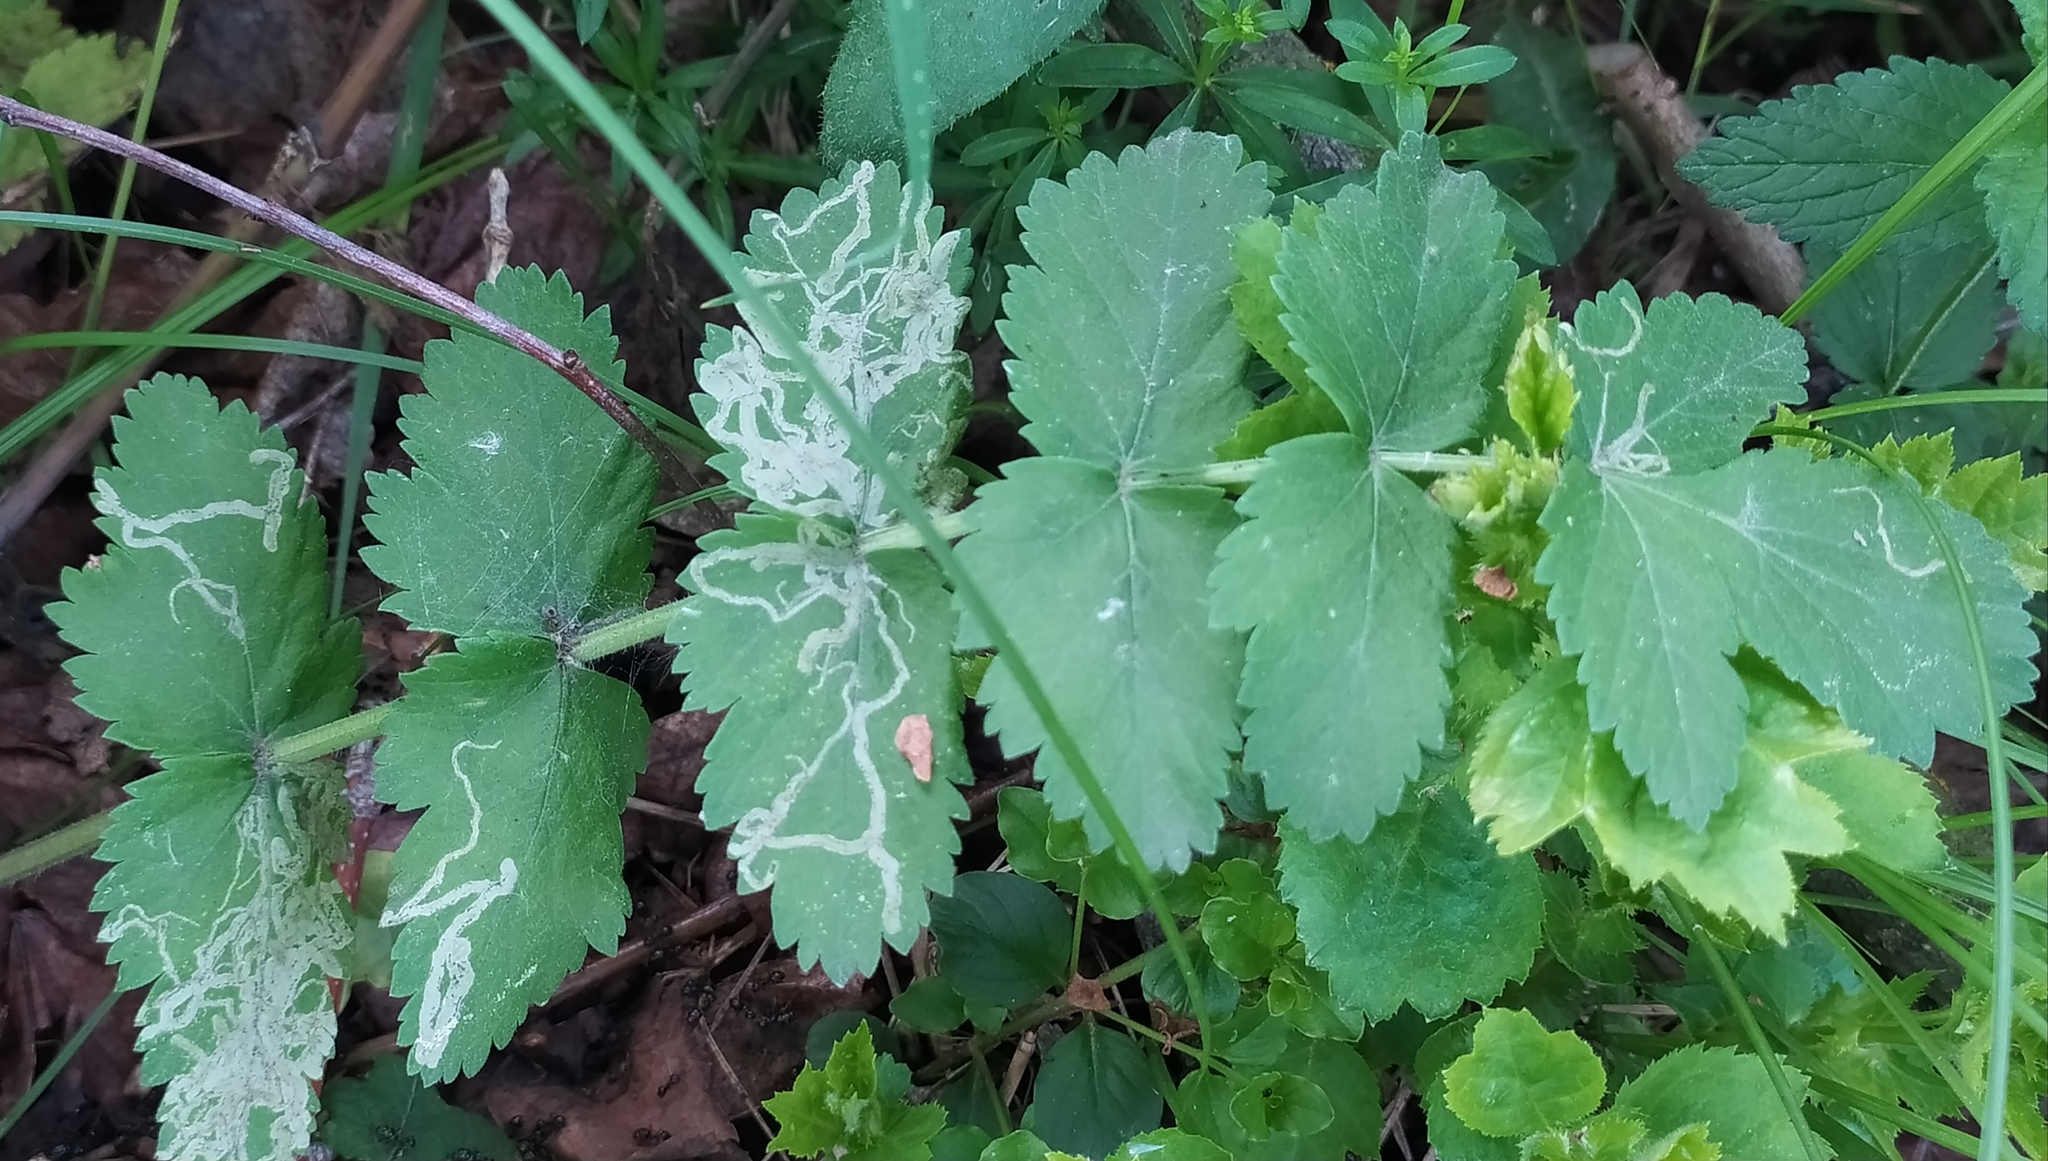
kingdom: Plantae
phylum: Tracheophyta
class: Magnoliopsida
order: Apiales
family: Apiaceae
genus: Pimpinella
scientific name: Pimpinella saxifraga
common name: Burnet-saxifrage
